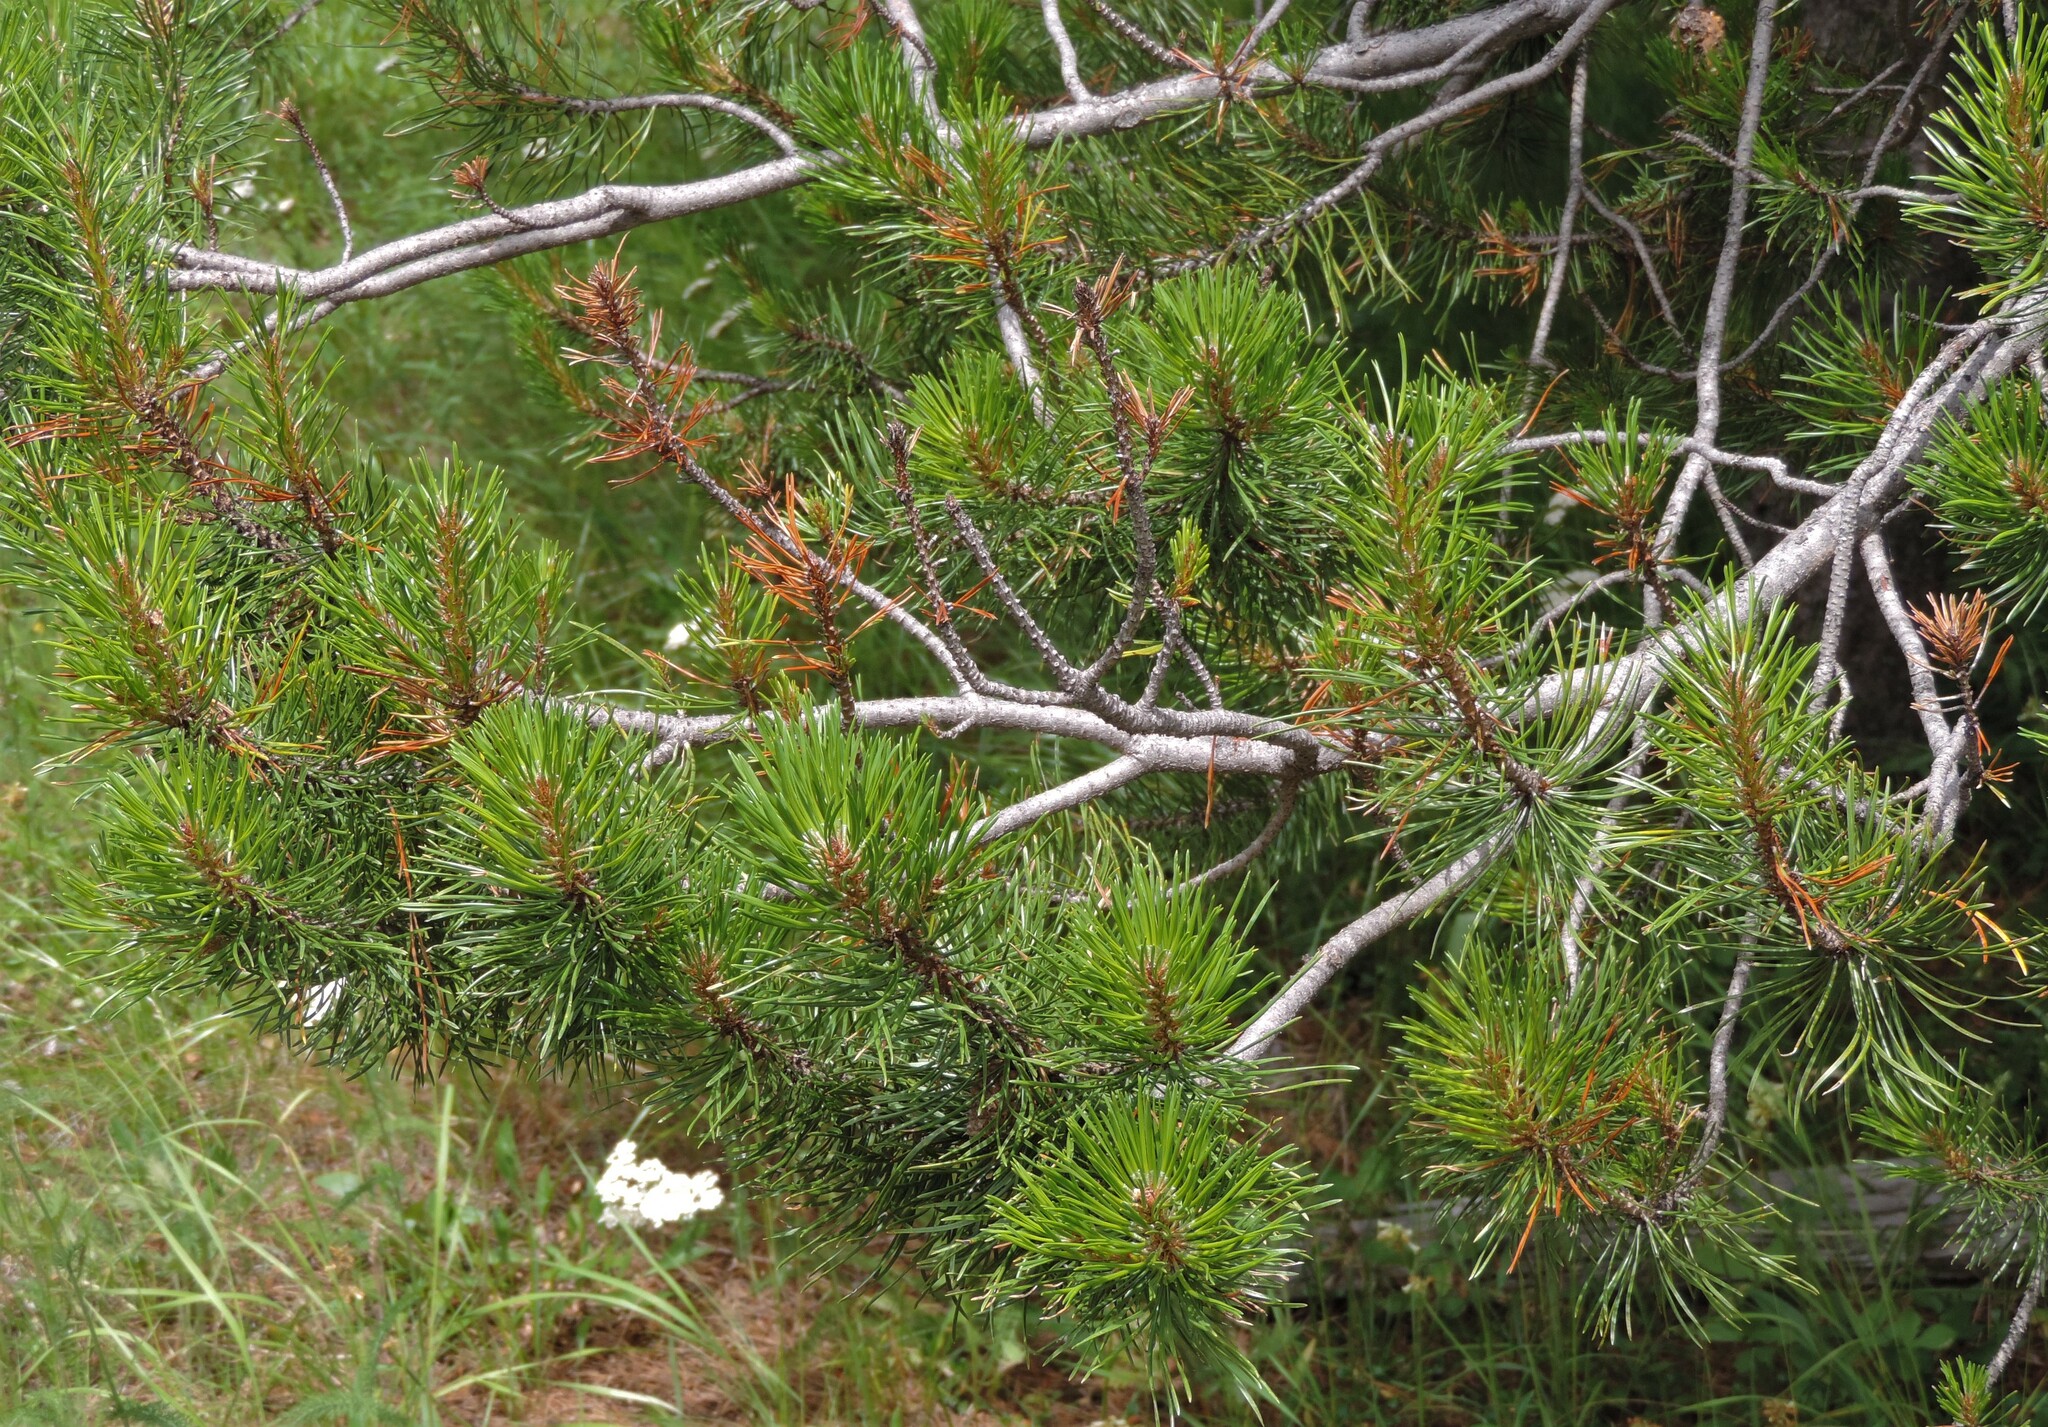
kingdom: Plantae
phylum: Tracheophyta
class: Pinopsida
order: Pinales
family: Pinaceae
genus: Pinus
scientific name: Pinus contorta
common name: Lodgepole pine
